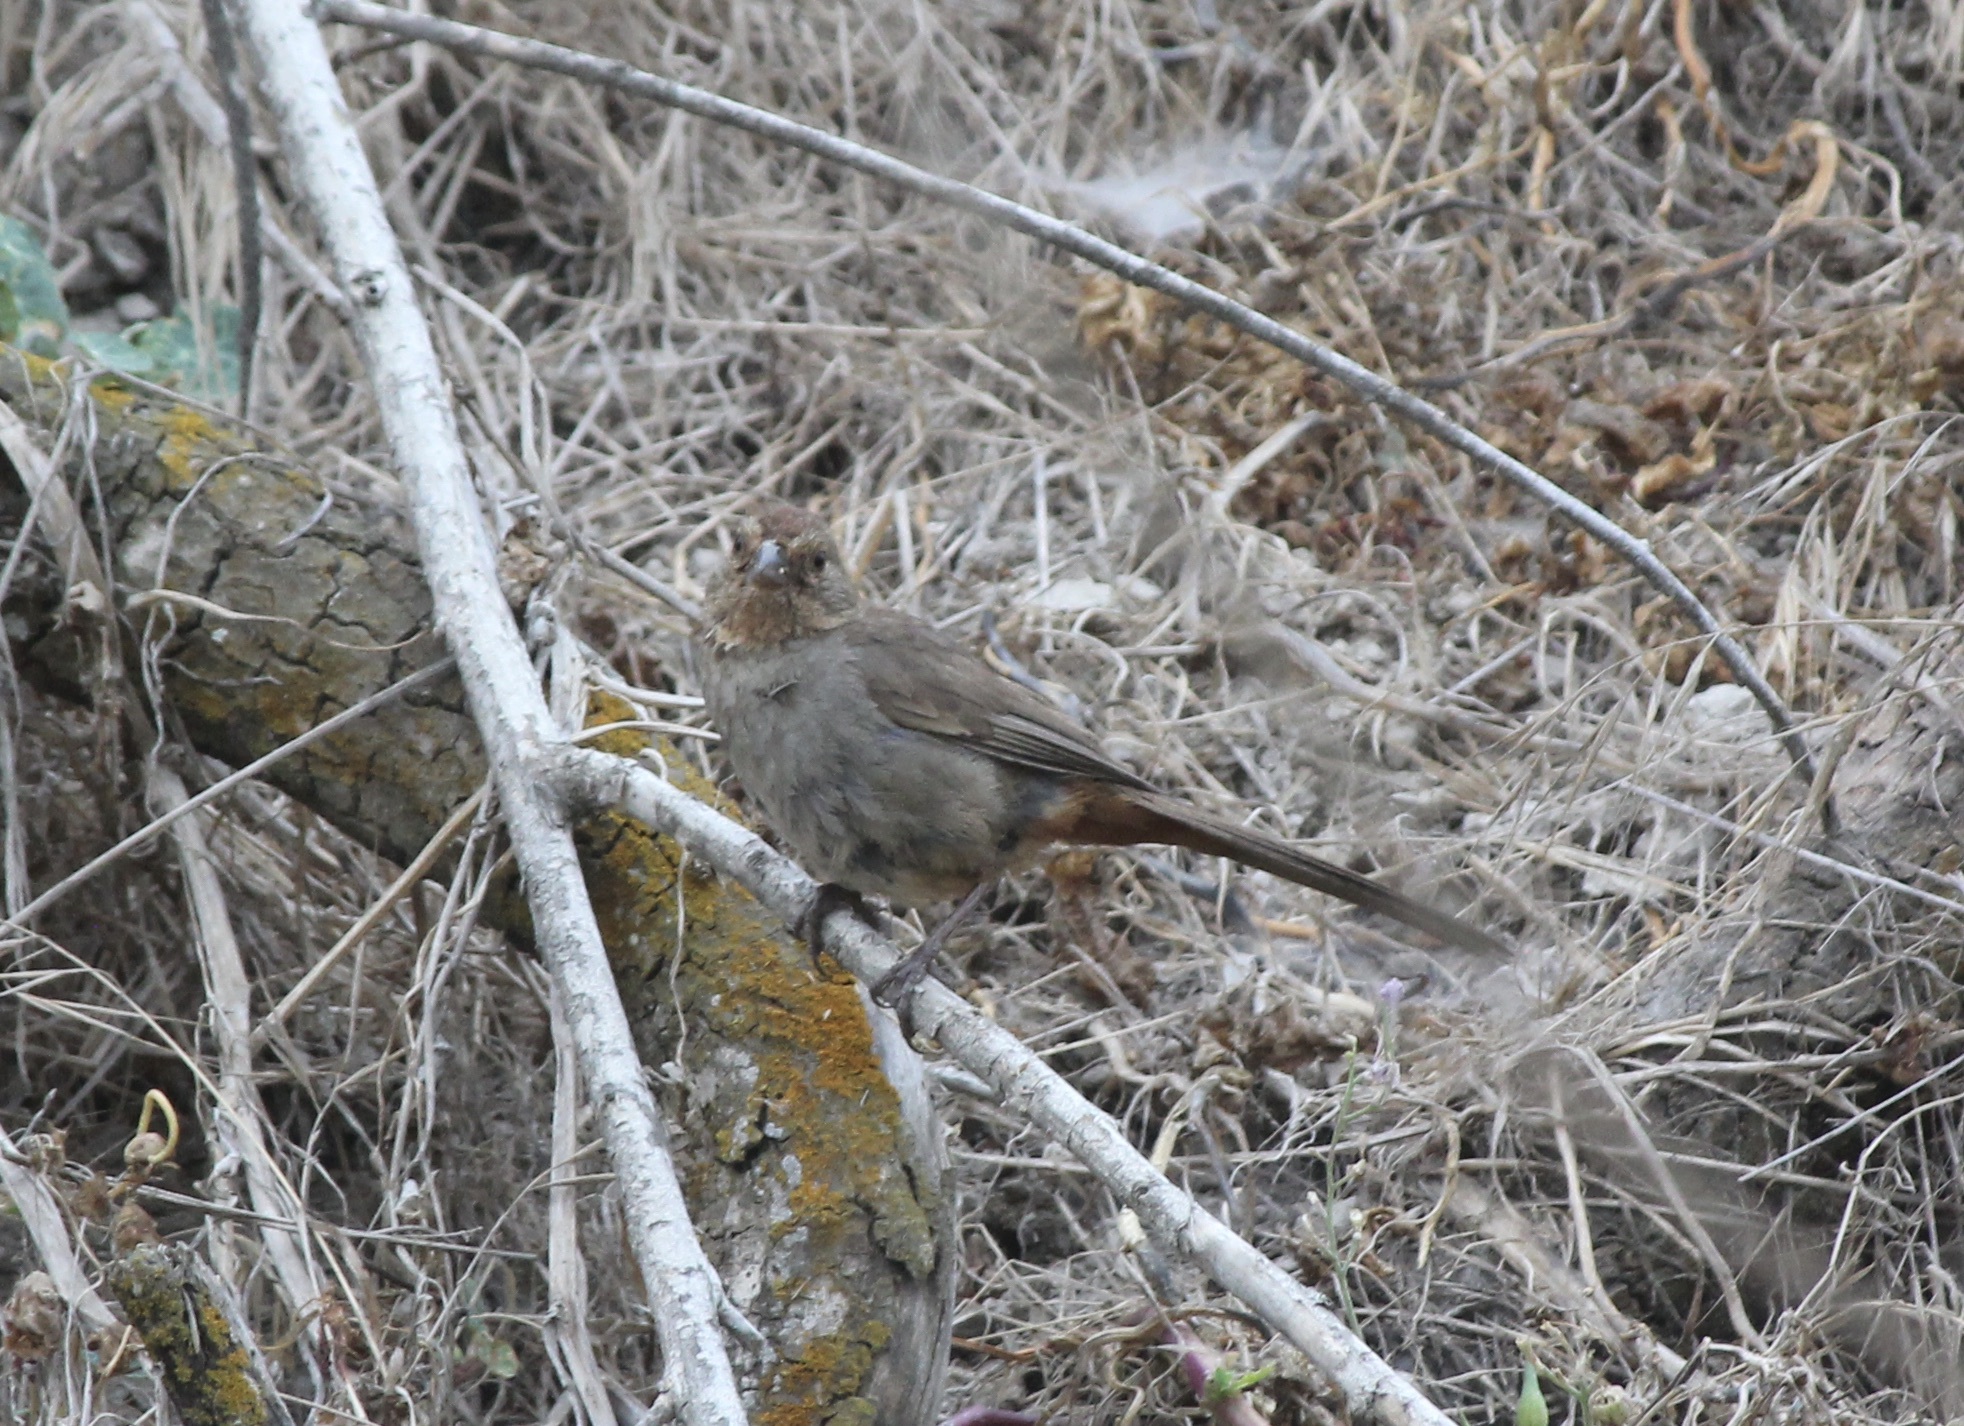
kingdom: Animalia
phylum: Chordata
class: Aves
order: Passeriformes
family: Passerellidae
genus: Melozone
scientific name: Melozone crissalis
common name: California towhee
